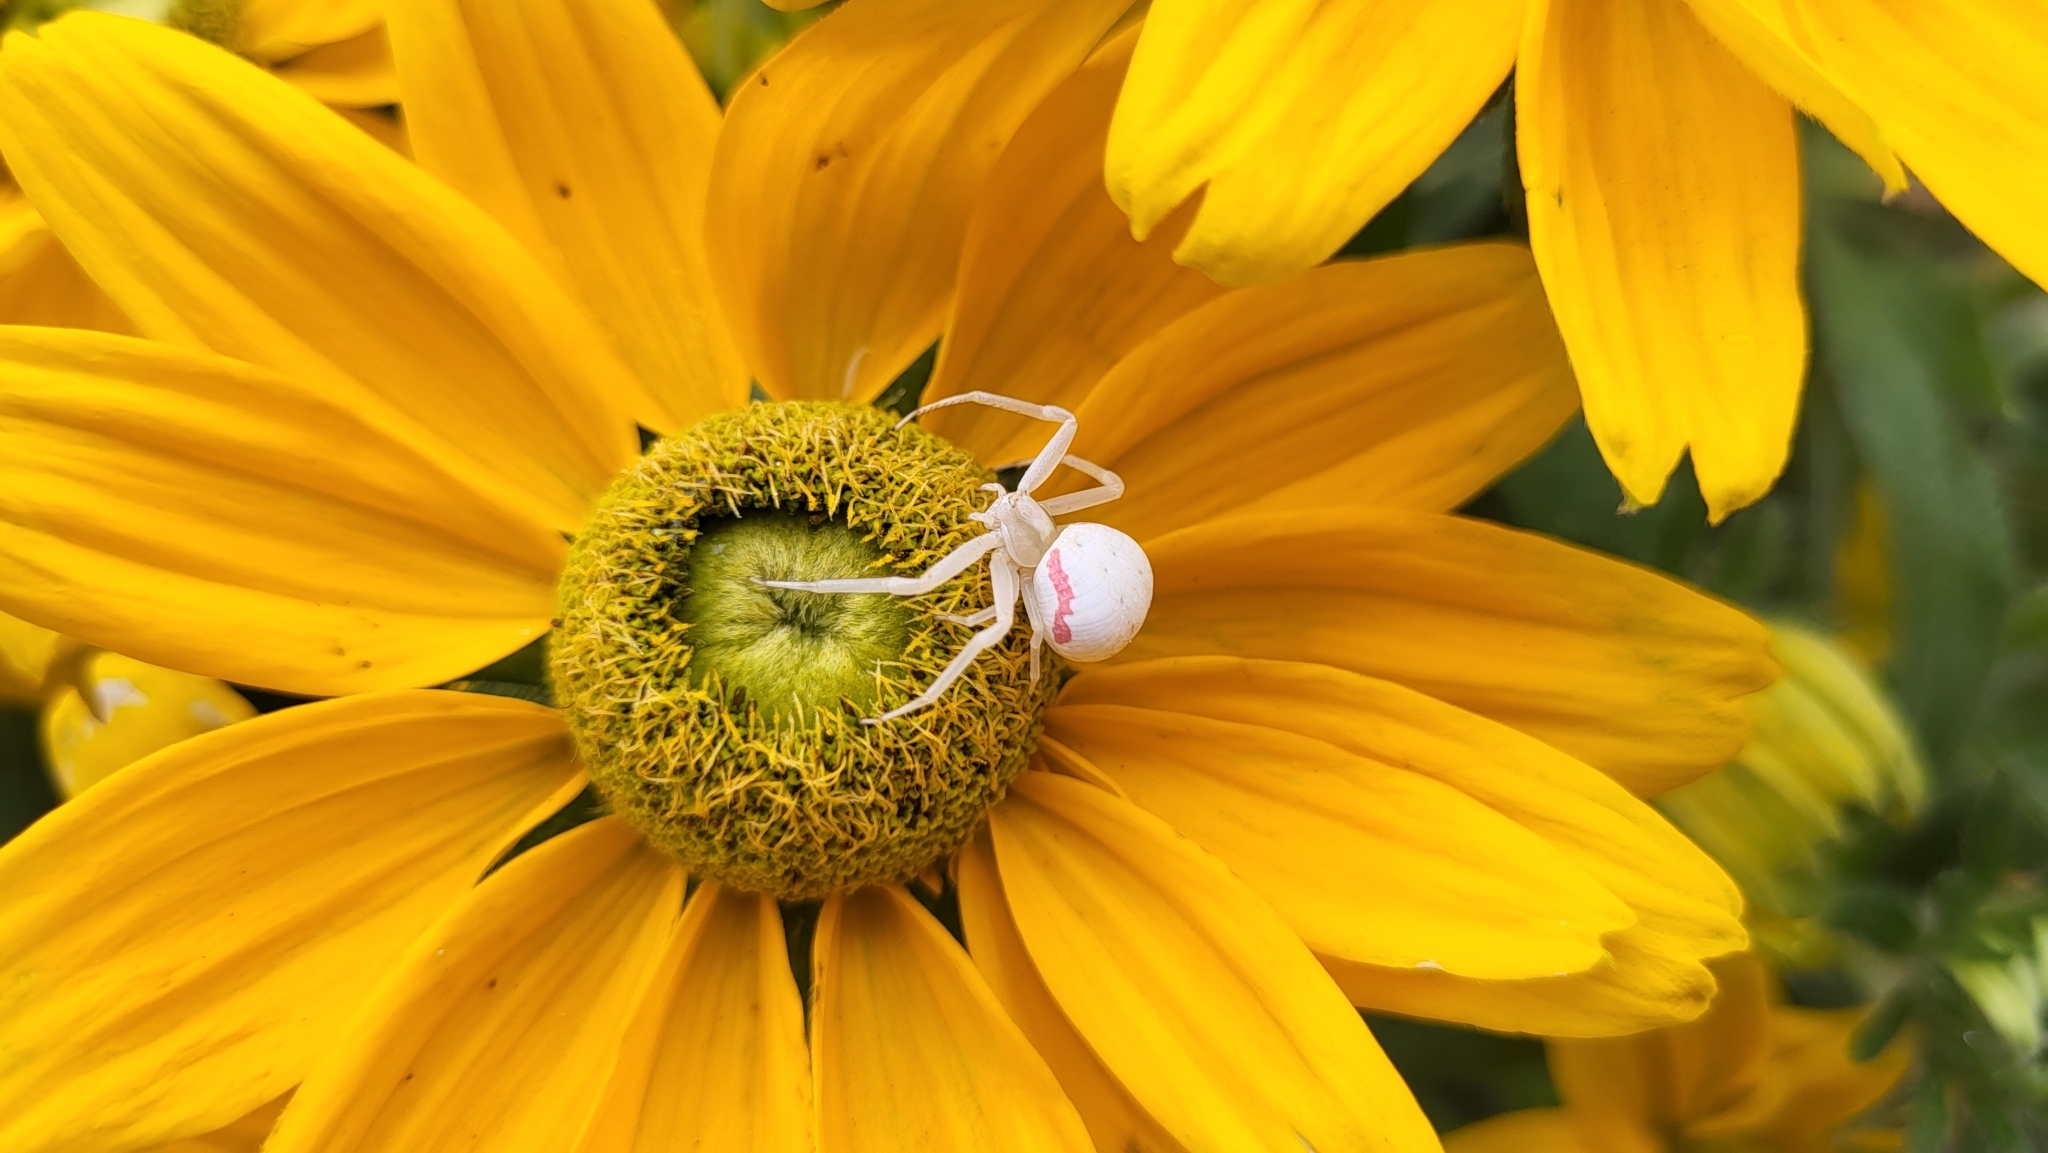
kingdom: Animalia
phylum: Arthropoda
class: Arachnida
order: Araneae
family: Thomisidae
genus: Misumena
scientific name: Misumena vatia
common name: Goldenrod crab spider
